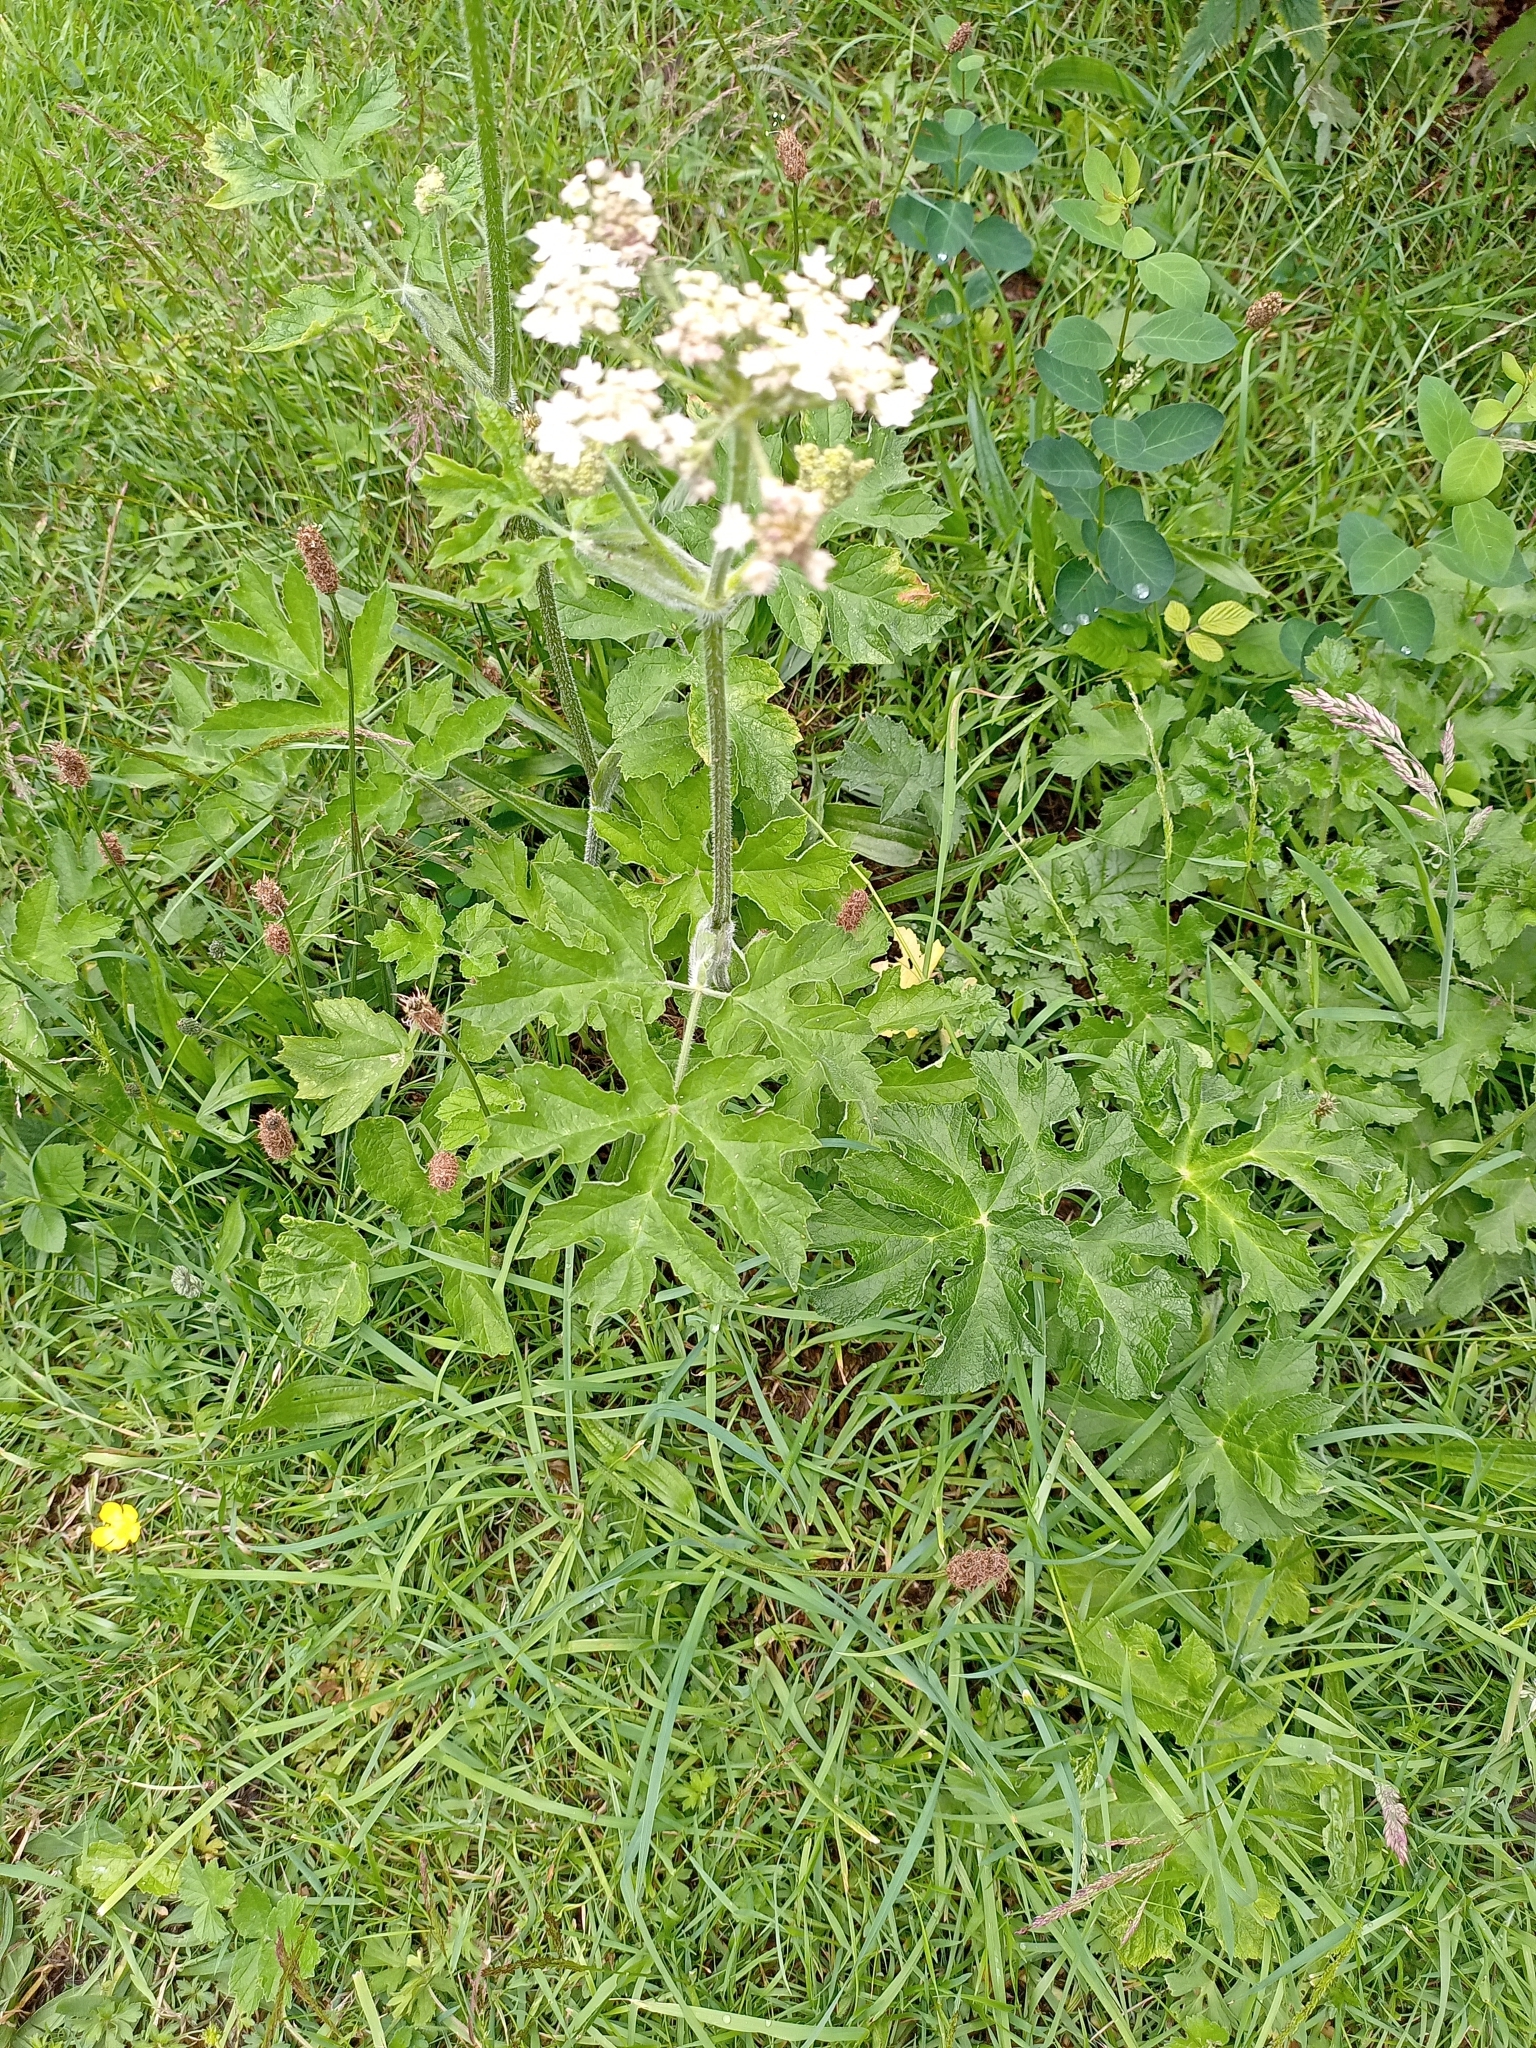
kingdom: Plantae
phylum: Tracheophyta
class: Magnoliopsida
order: Apiales
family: Apiaceae
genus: Heracleum
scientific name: Heracleum sphondylium
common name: Hogweed
